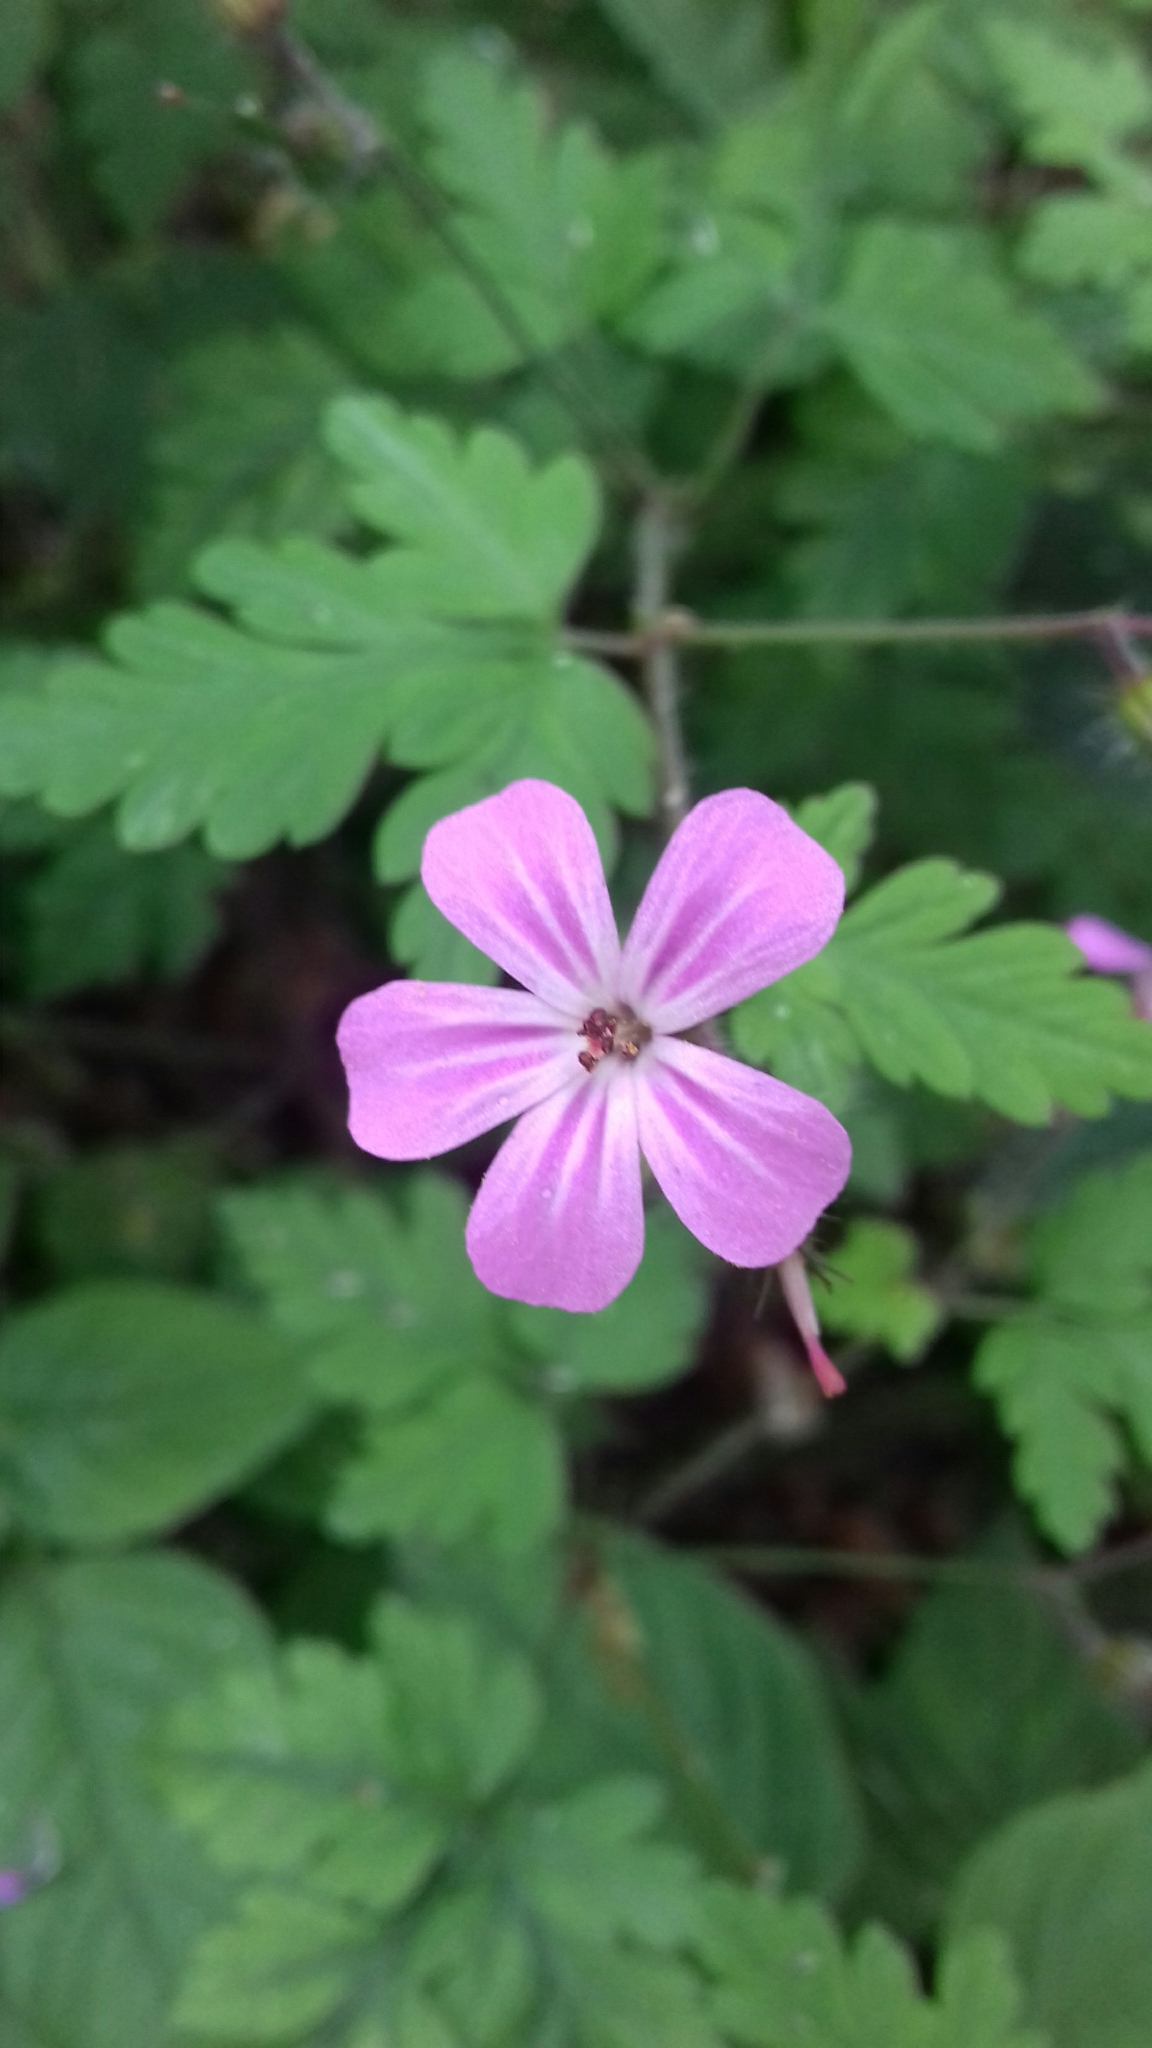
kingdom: Plantae
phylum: Tracheophyta
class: Magnoliopsida
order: Geraniales
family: Geraniaceae
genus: Geranium
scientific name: Geranium robertianum
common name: Herb-robert
